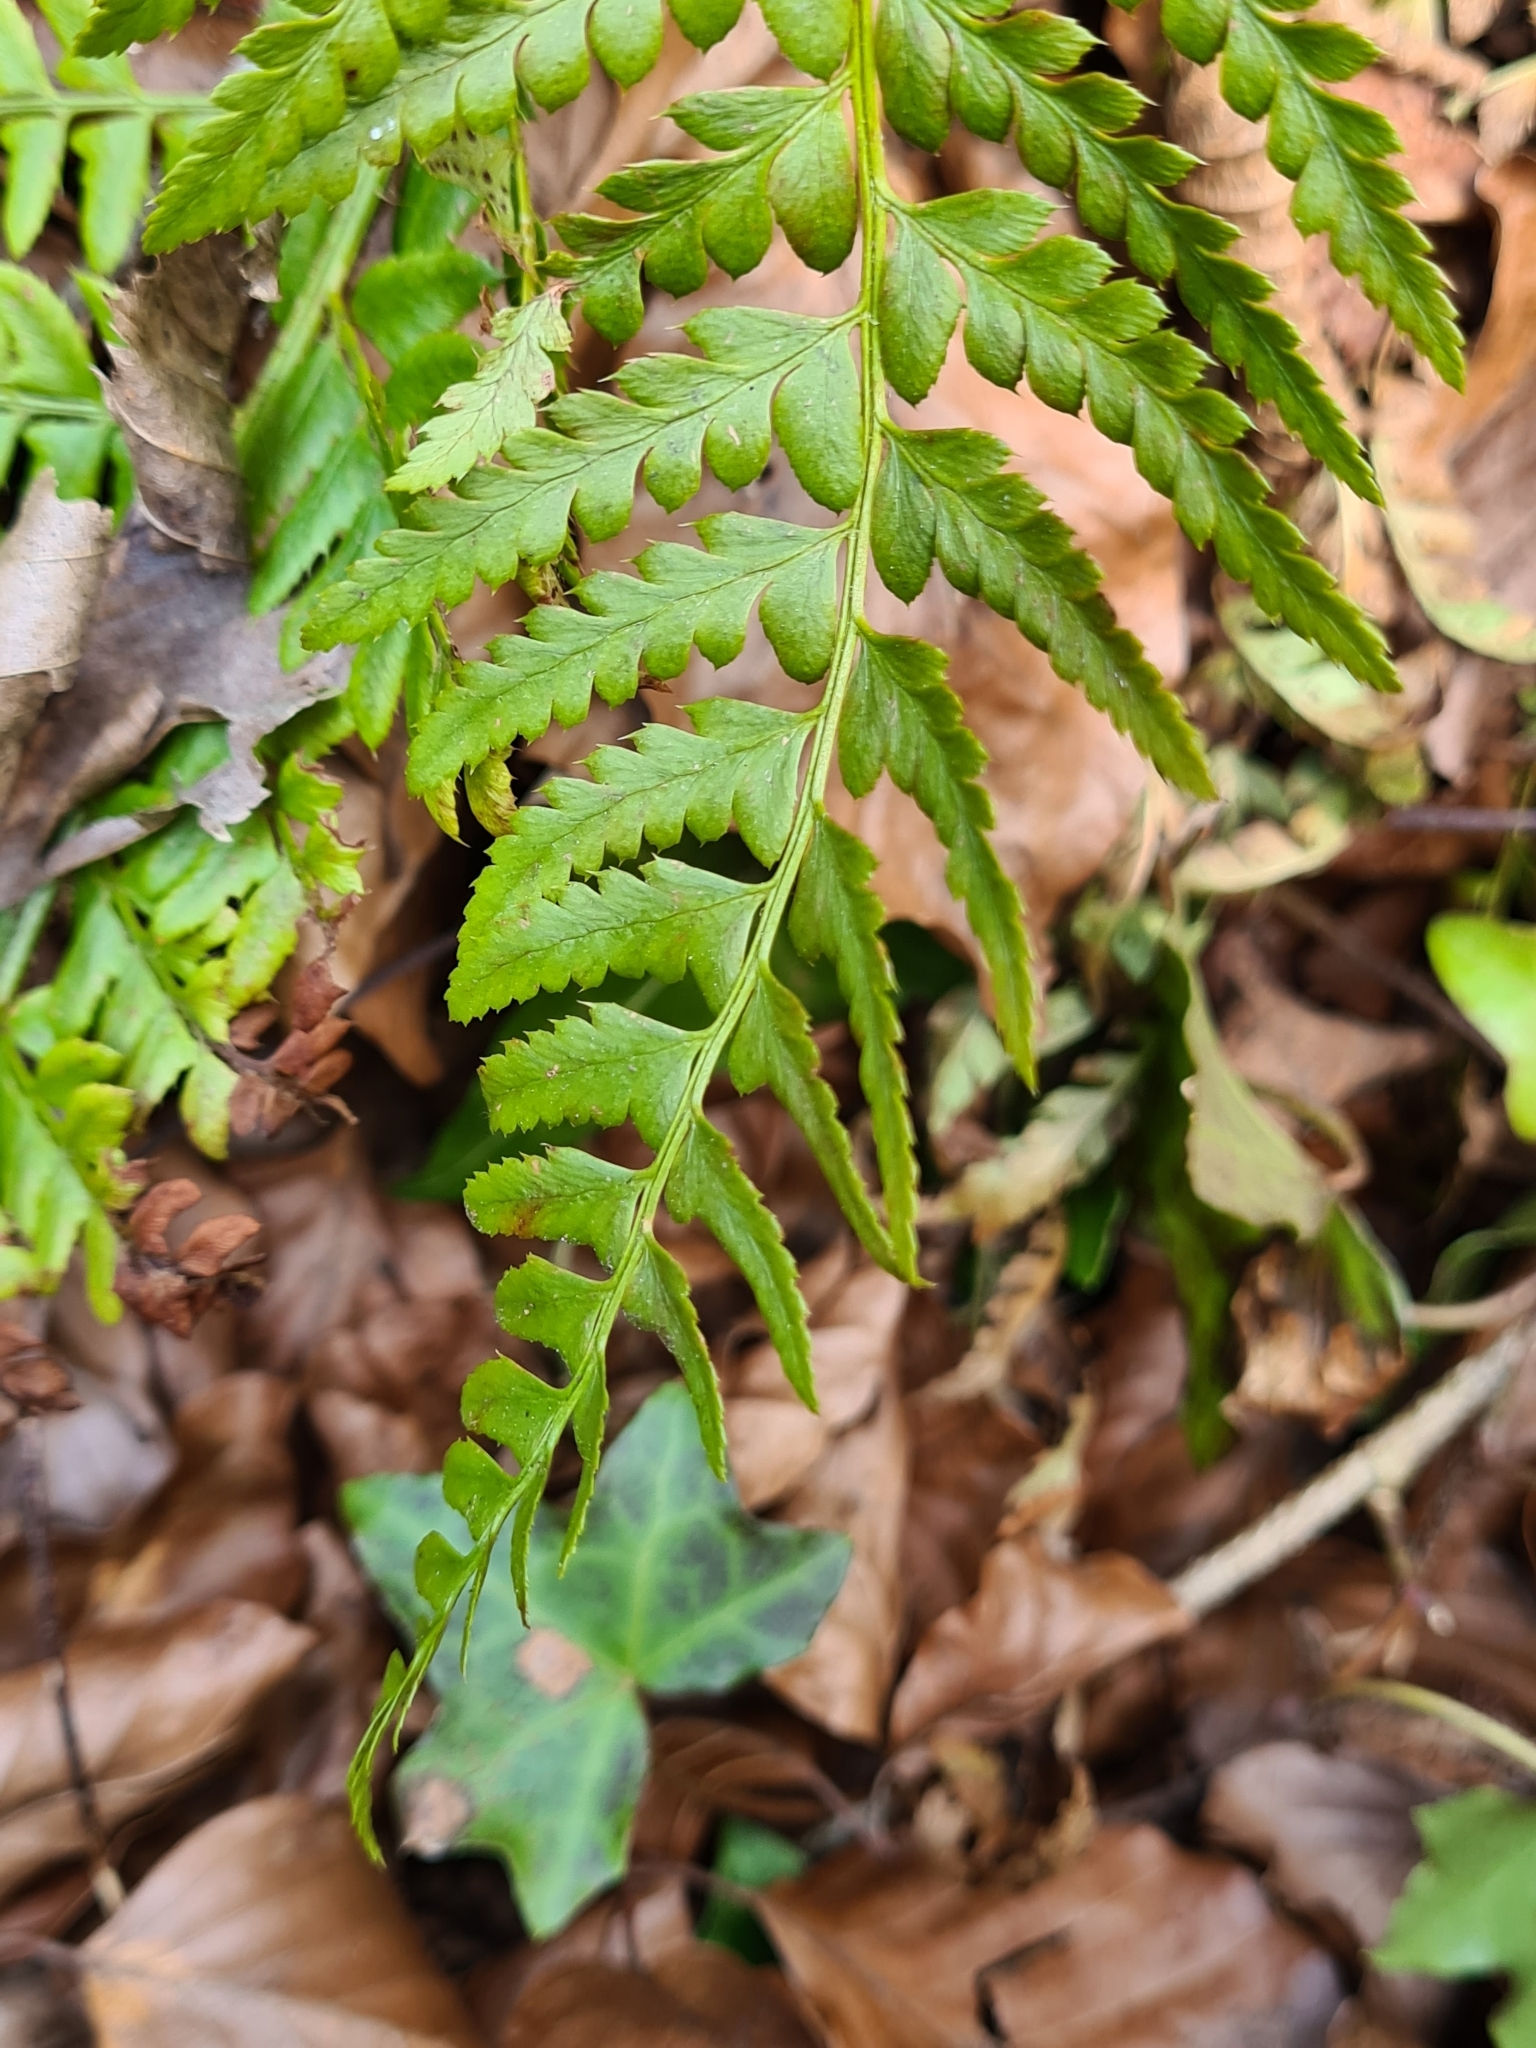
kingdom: Plantae
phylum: Tracheophyta
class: Polypodiopsida
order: Polypodiales
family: Dryopteridaceae
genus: Polystichum
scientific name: Polystichum aculeatum
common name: Hard shield-fern
